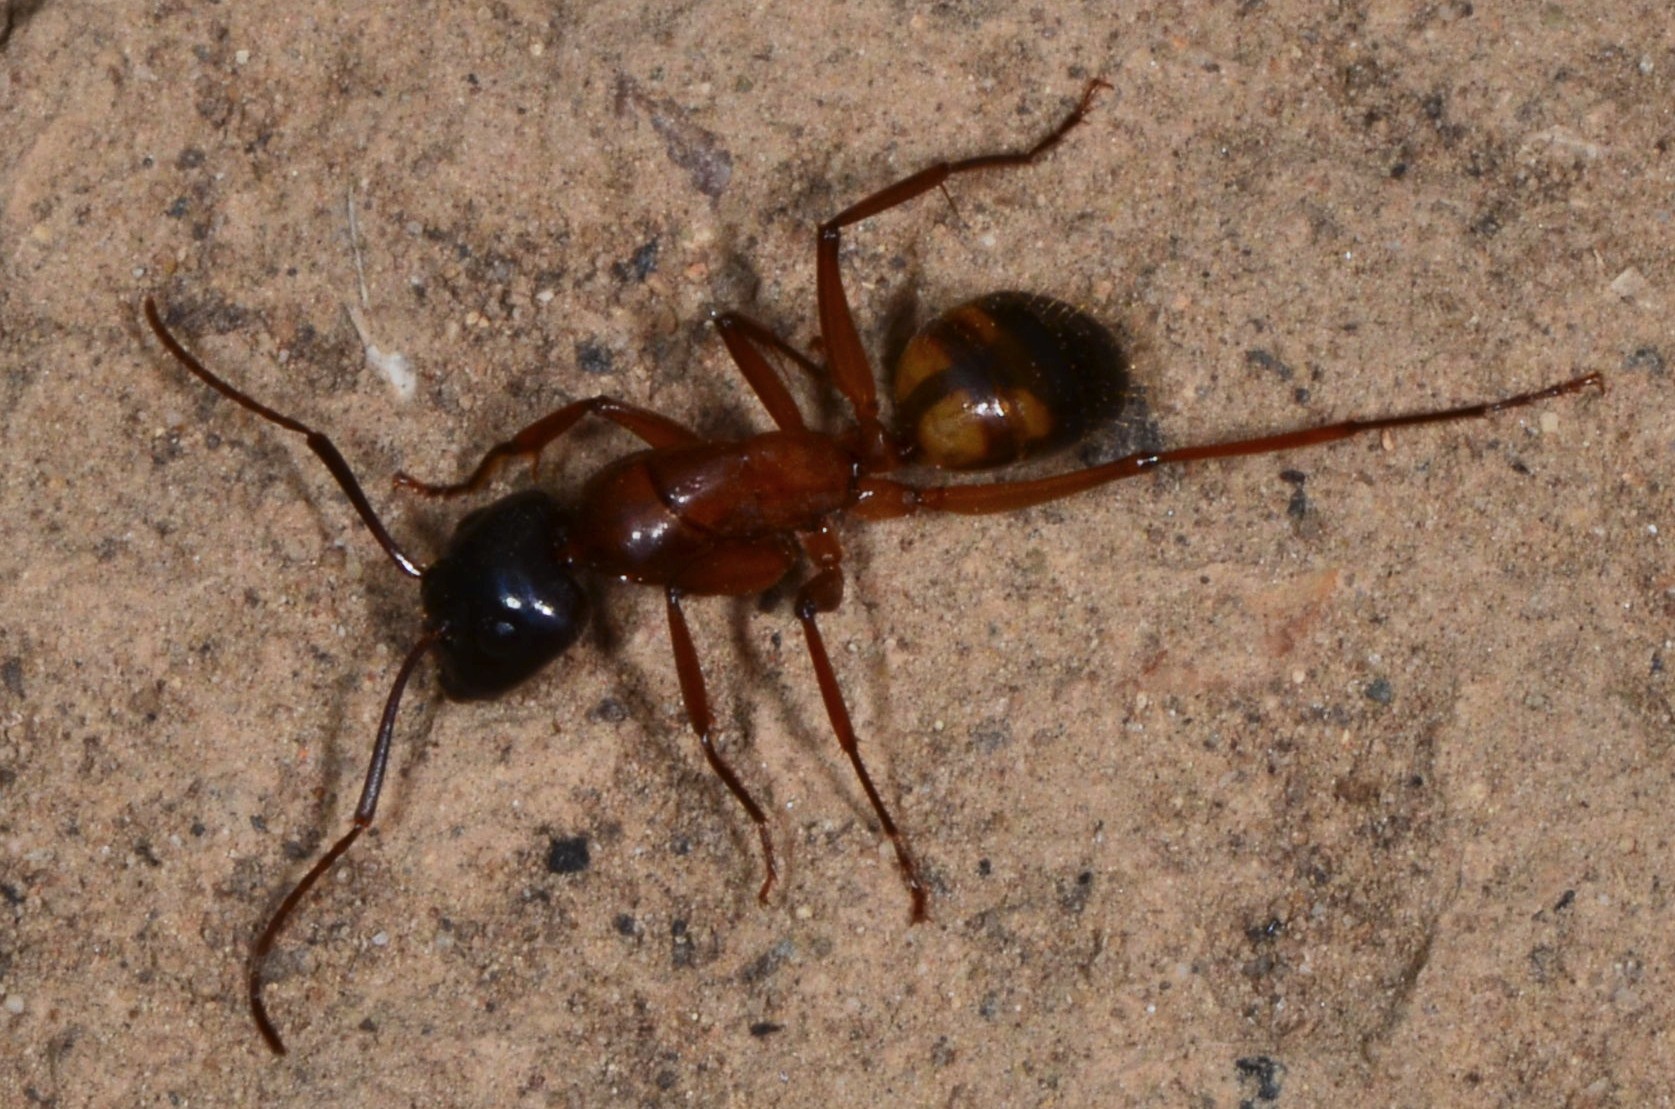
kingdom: Animalia
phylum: Arthropoda
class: Insecta
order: Hymenoptera
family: Formicidae
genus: Camponotus
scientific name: Camponotus semitestaceus
